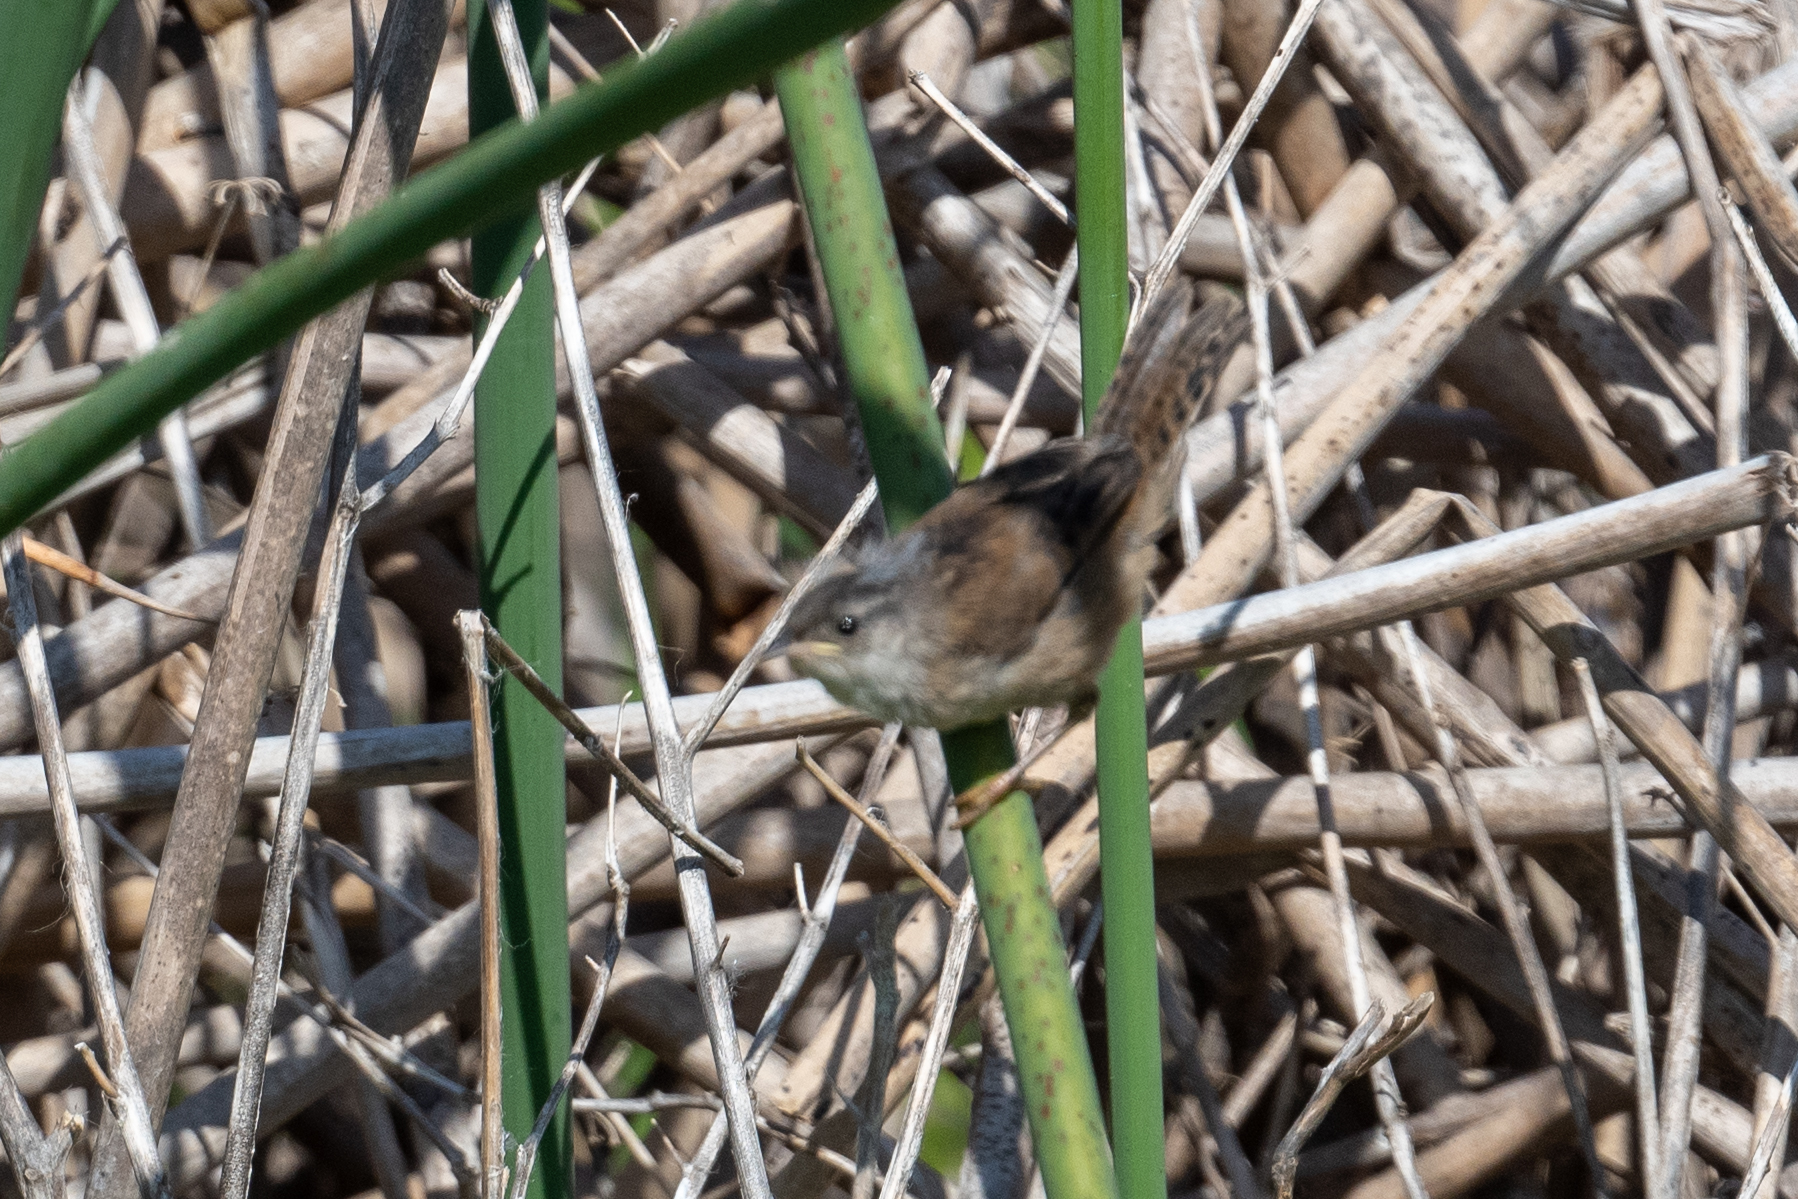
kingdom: Animalia
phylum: Chordata
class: Aves
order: Passeriformes
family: Troglodytidae
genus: Cistothorus
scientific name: Cistothorus palustris
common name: Marsh wren
